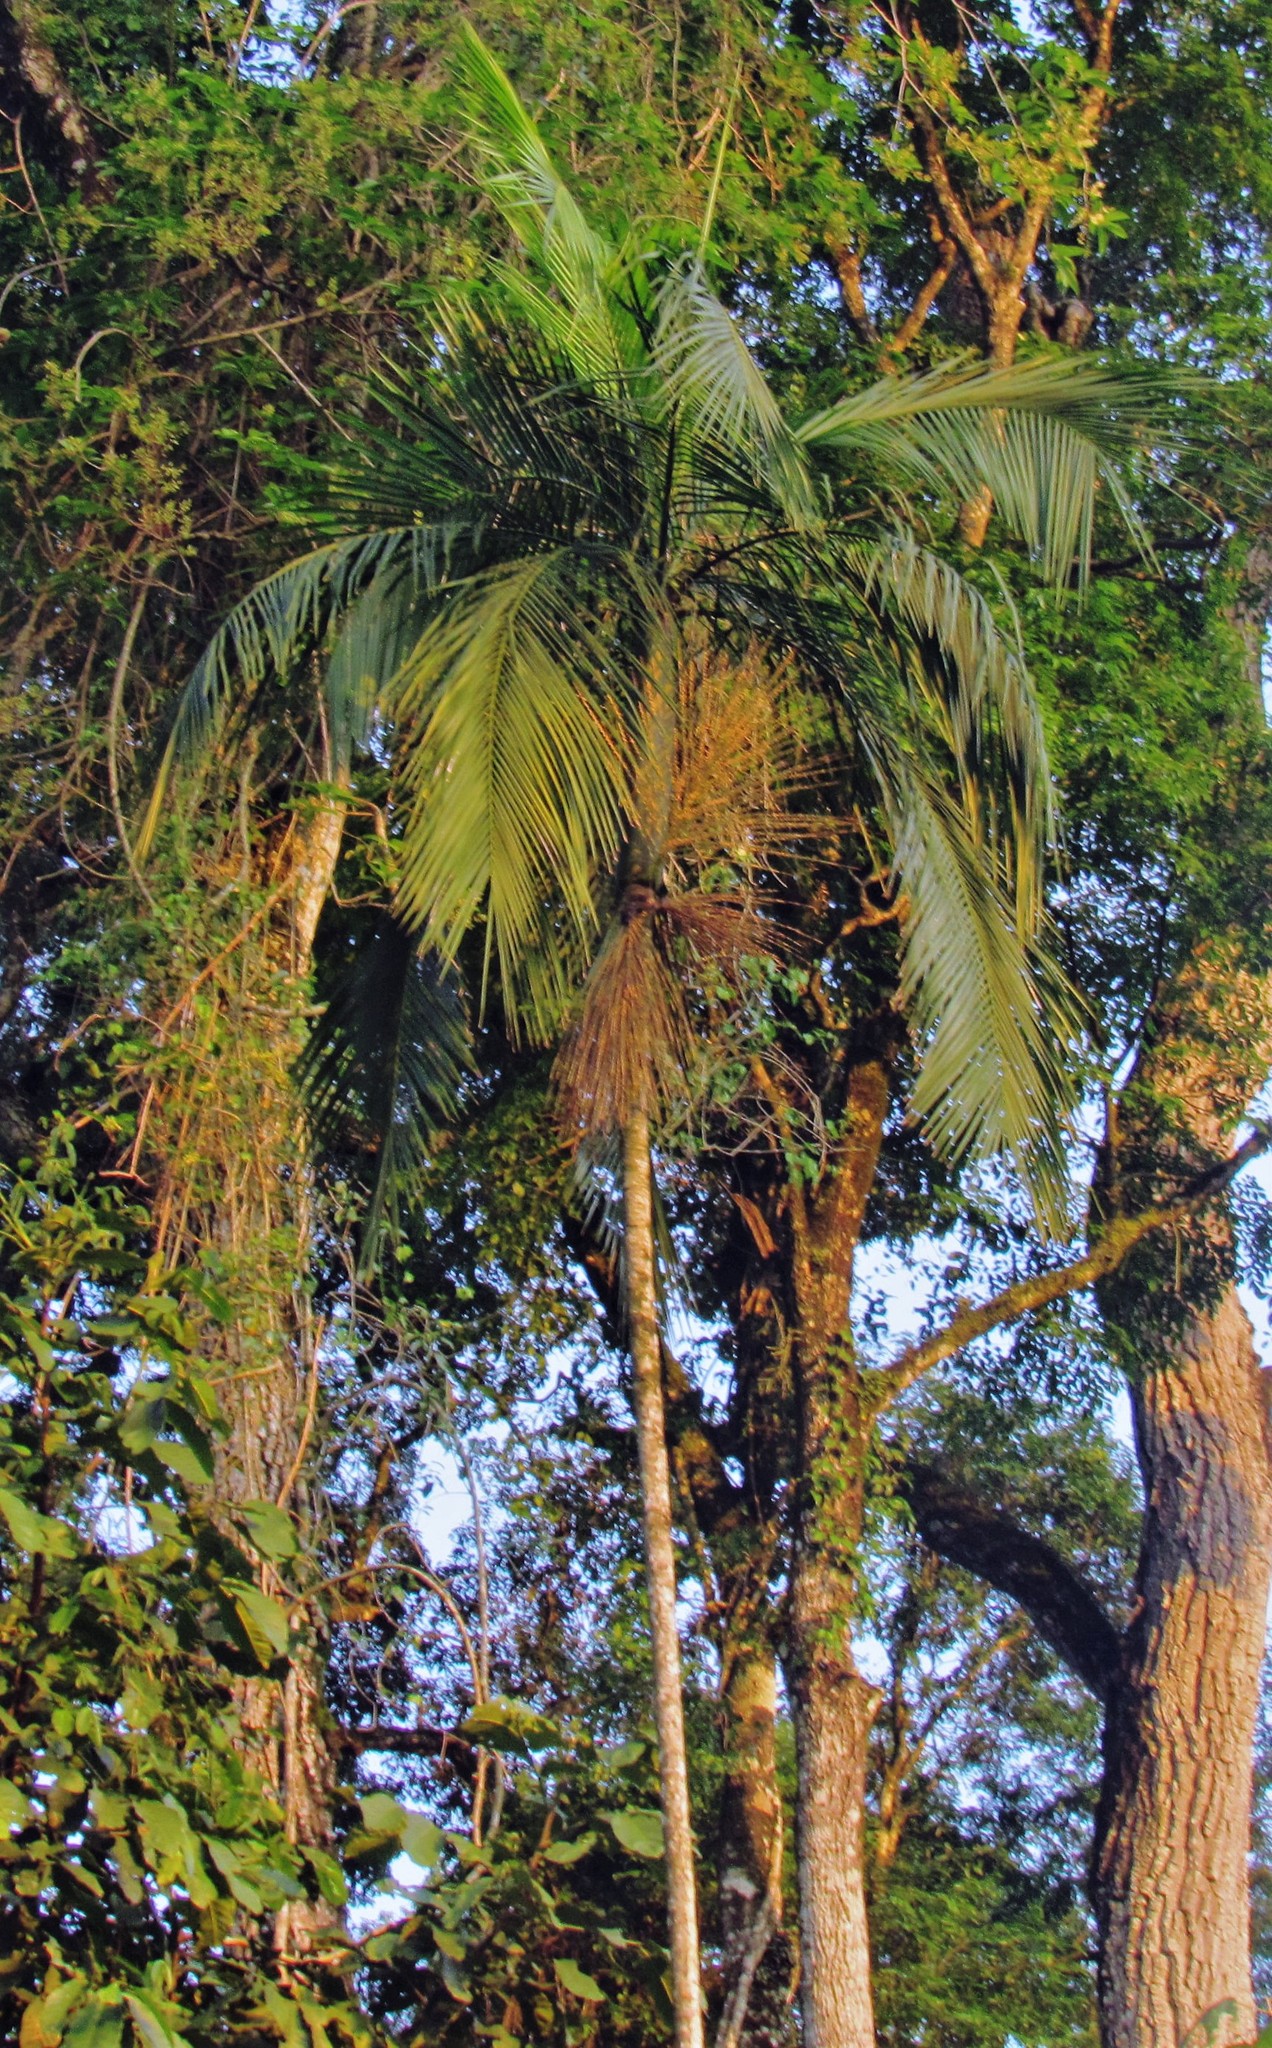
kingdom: Plantae
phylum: Tracheophyta
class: Liliopsida
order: Arecales
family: Arecaceae
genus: Euterpe
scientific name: Euterpe edulis
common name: Assai palm
